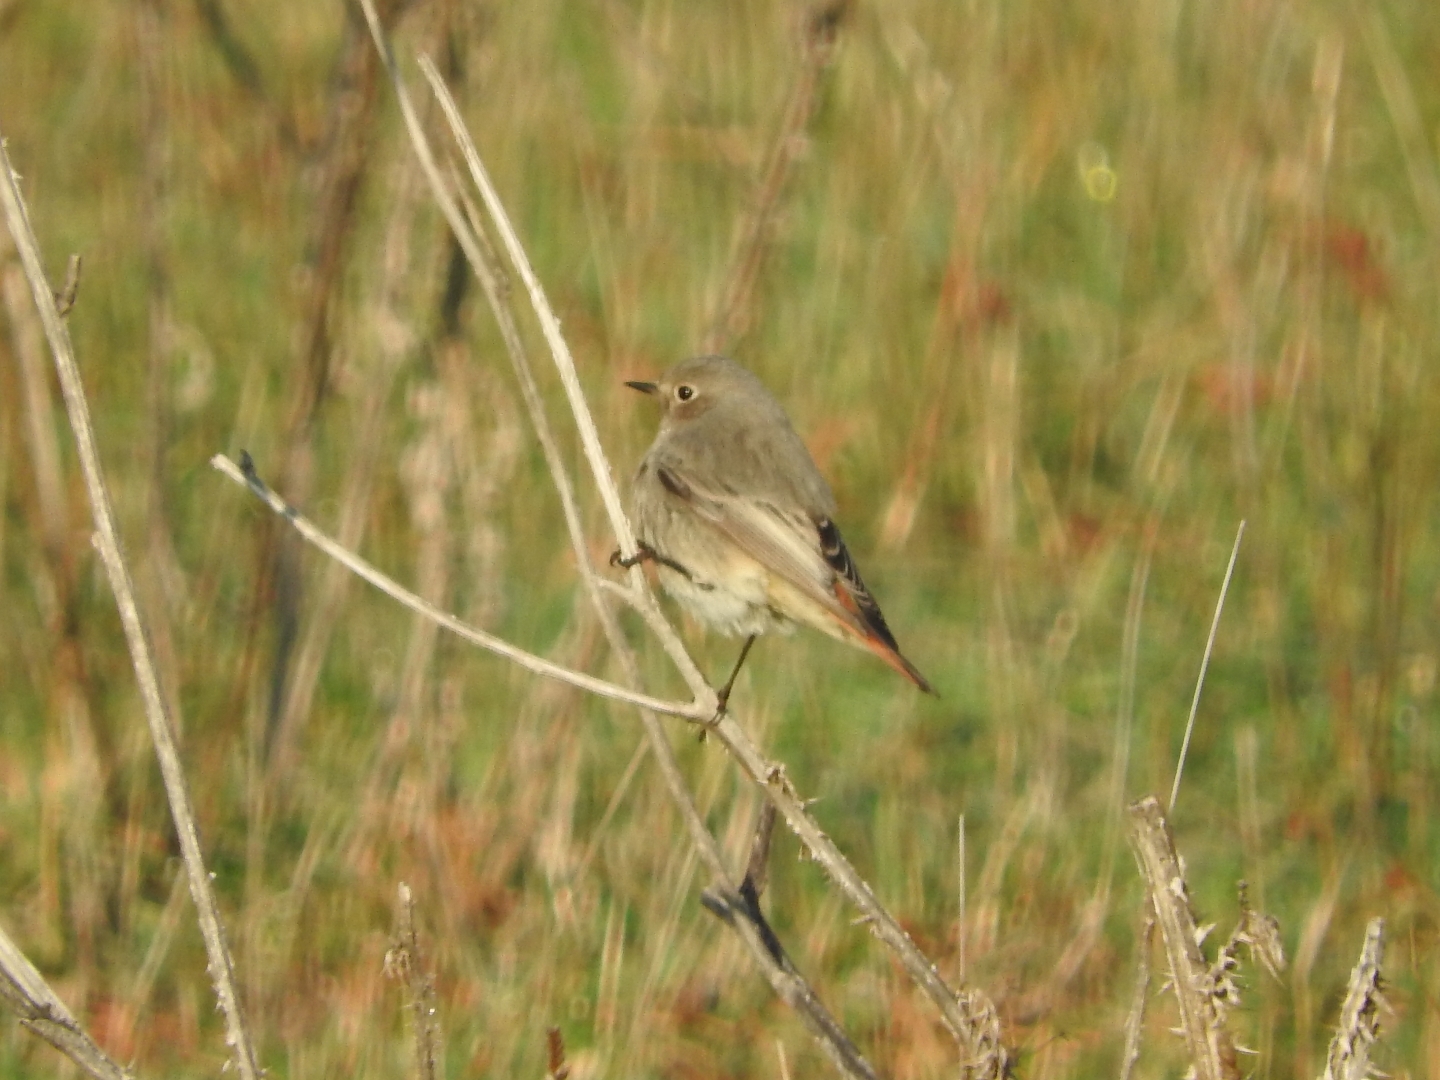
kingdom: Animalia
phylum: Chordata
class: Aves
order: Passeriformes
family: Muscicapidae
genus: Phoenicurus
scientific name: Phoenicurus ochruros
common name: Black redstart
